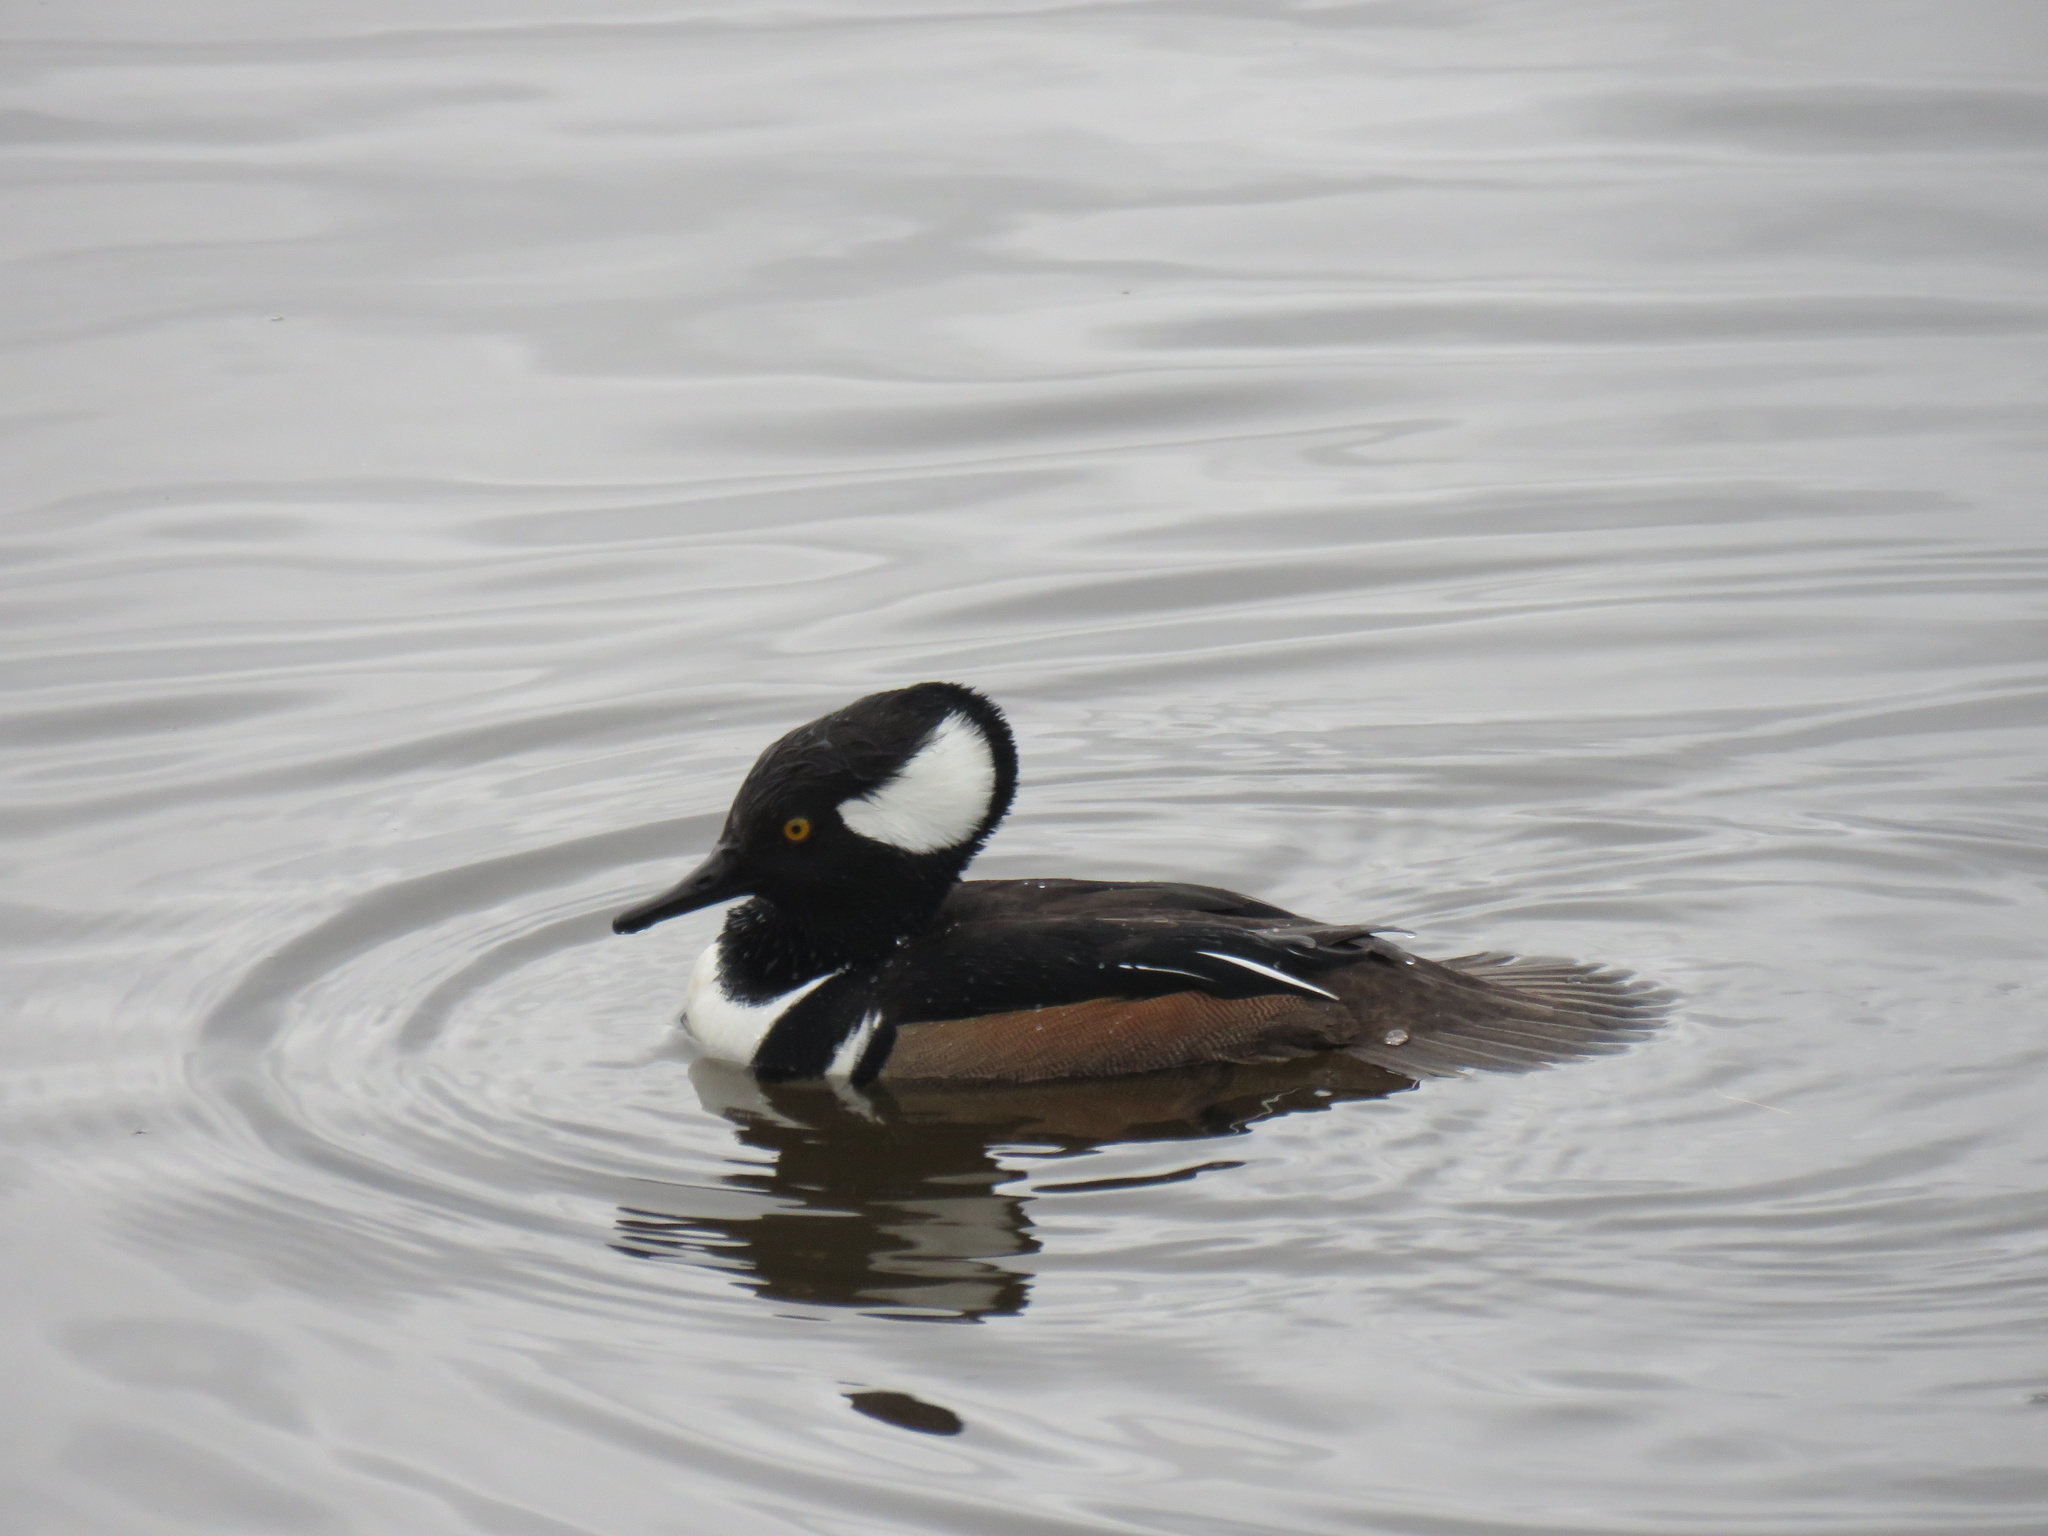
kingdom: Animalia
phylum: Chordata
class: Aves
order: Anseriformes
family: Anatidae
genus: Lophodytes
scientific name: Lophodytes cucullatus
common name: Hooded merganser
